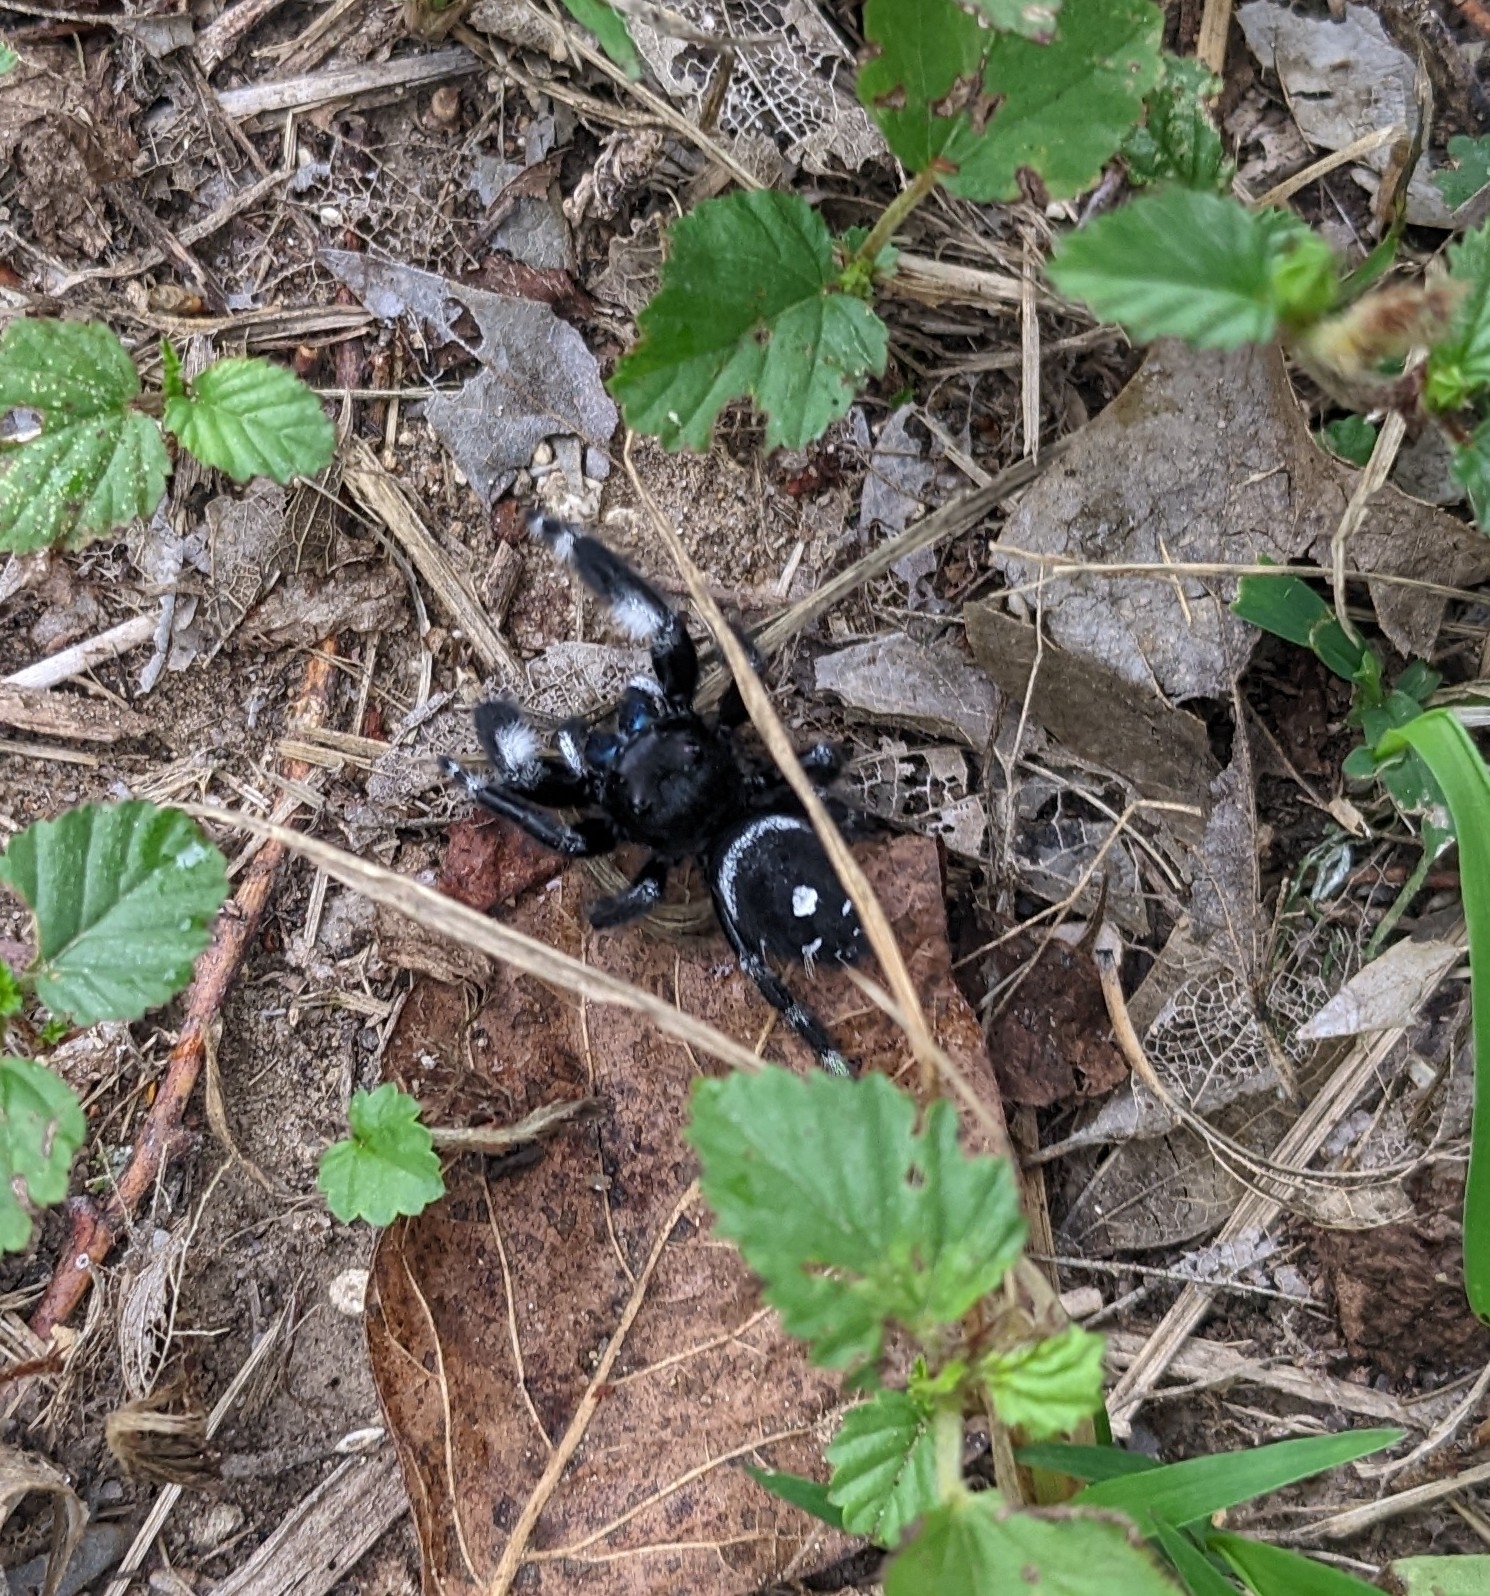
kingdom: Animalia
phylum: Arthropoda
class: Arachnida
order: Araneae
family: Salticidae
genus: Phidippus
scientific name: Phidippus audax
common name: Bold jumper
